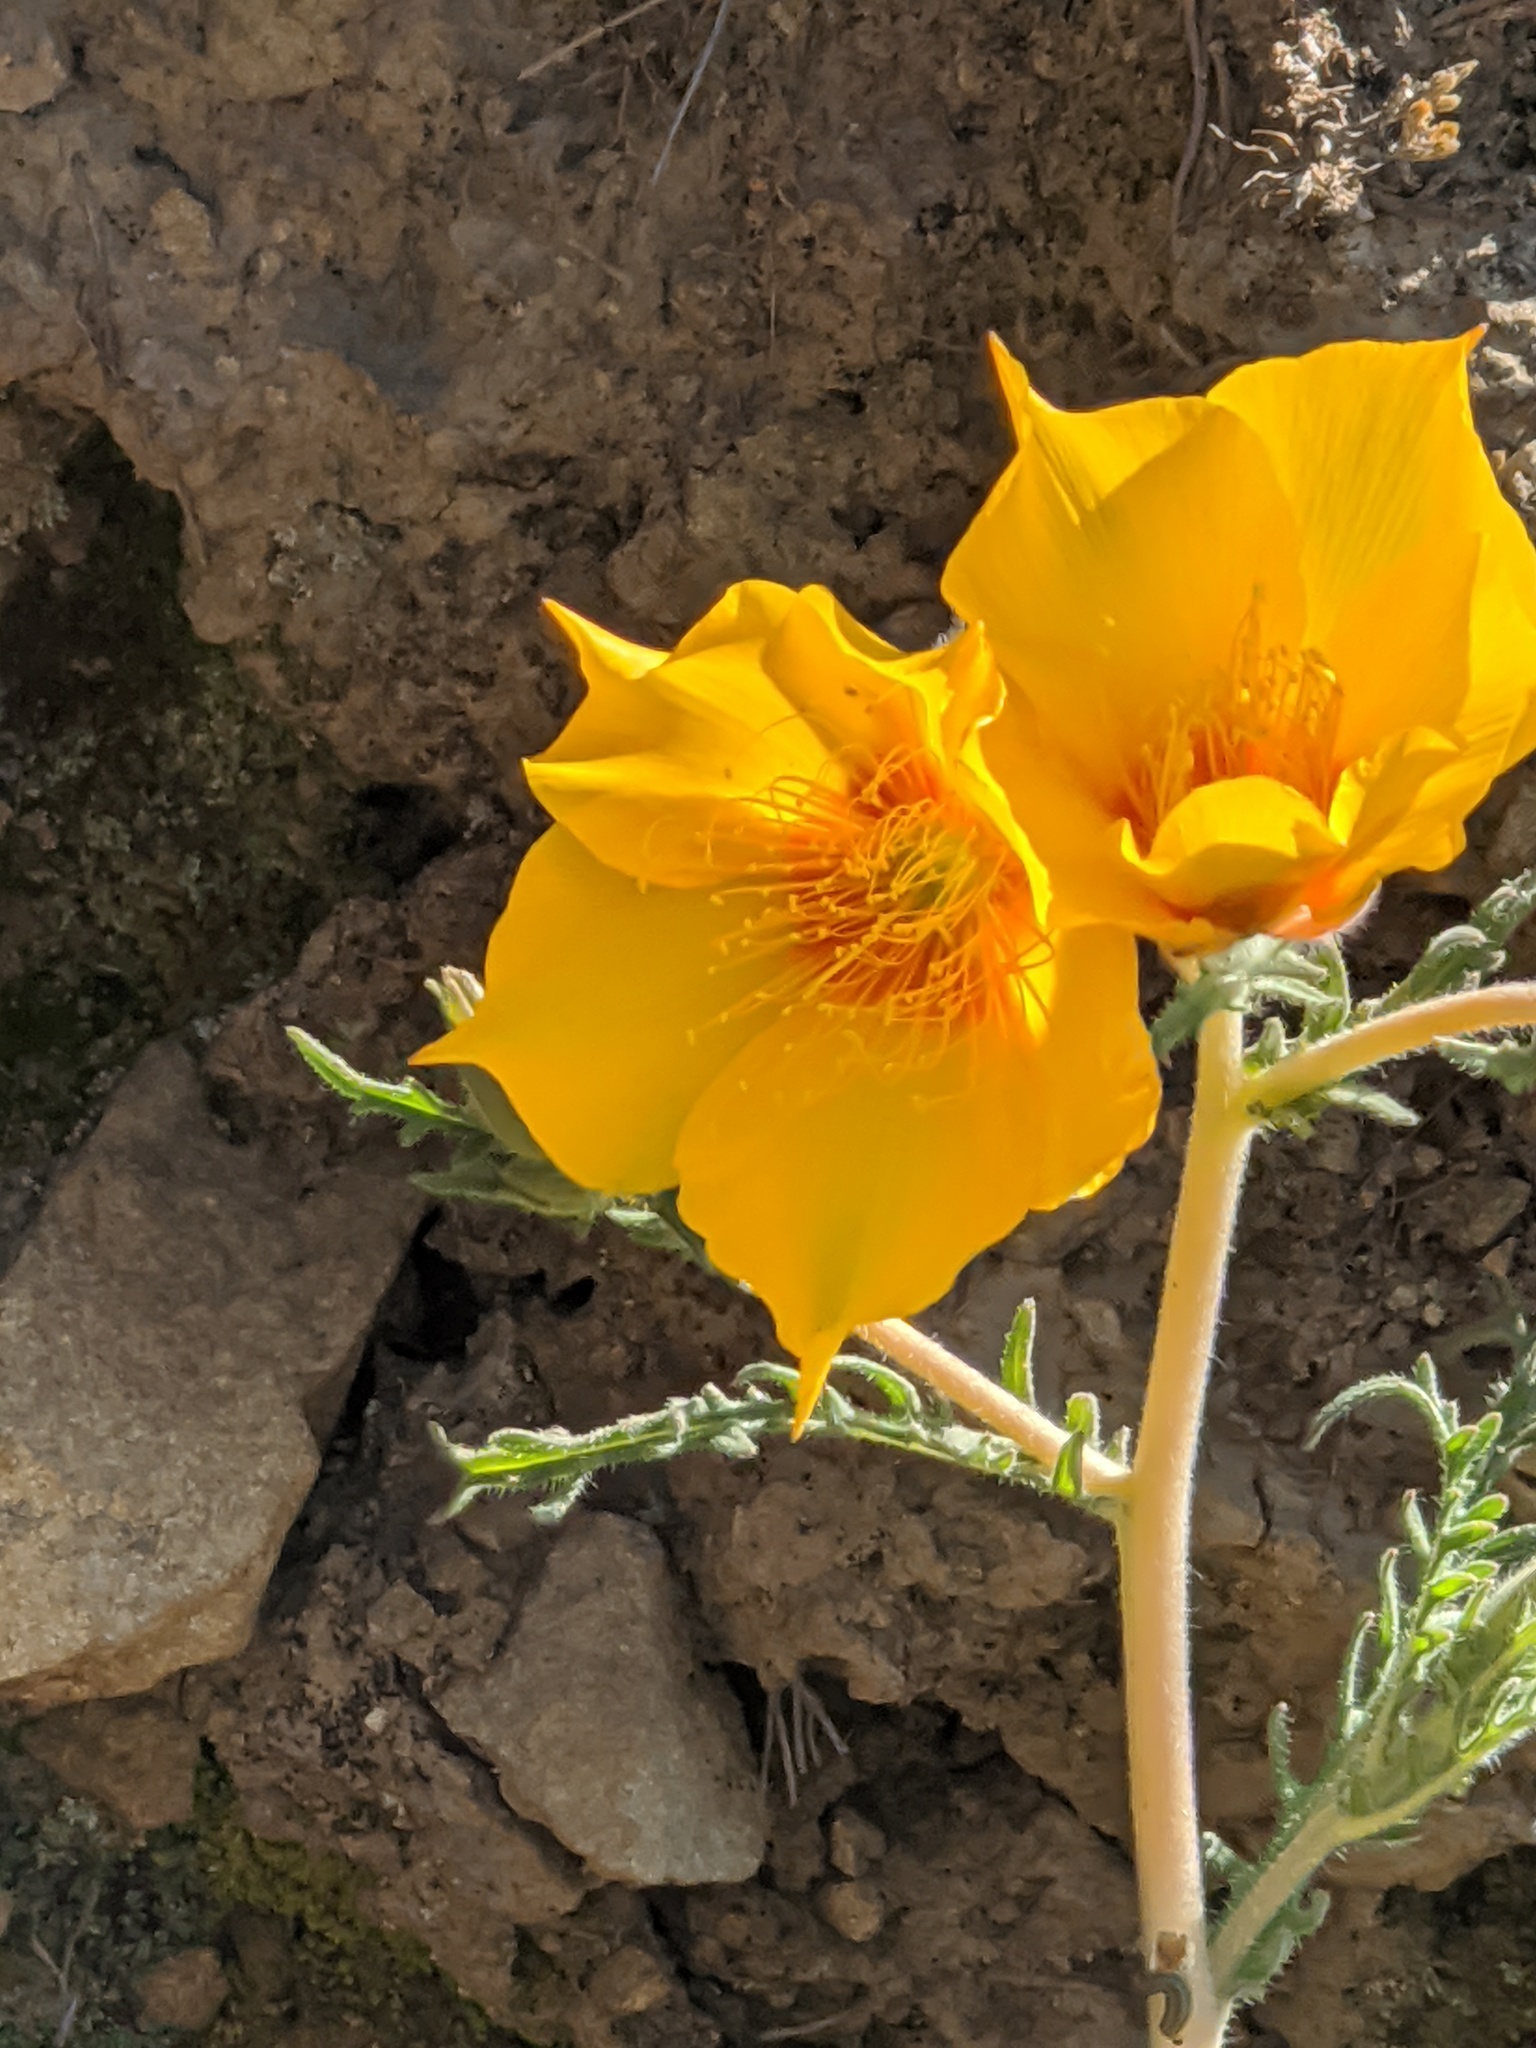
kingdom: Plantae
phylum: Tracheophyta
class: Magnoliopsida
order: Cornales
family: Loasaceae
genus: Mentzelia
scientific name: Mentzelia lindleyi
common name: Golden bartonia
